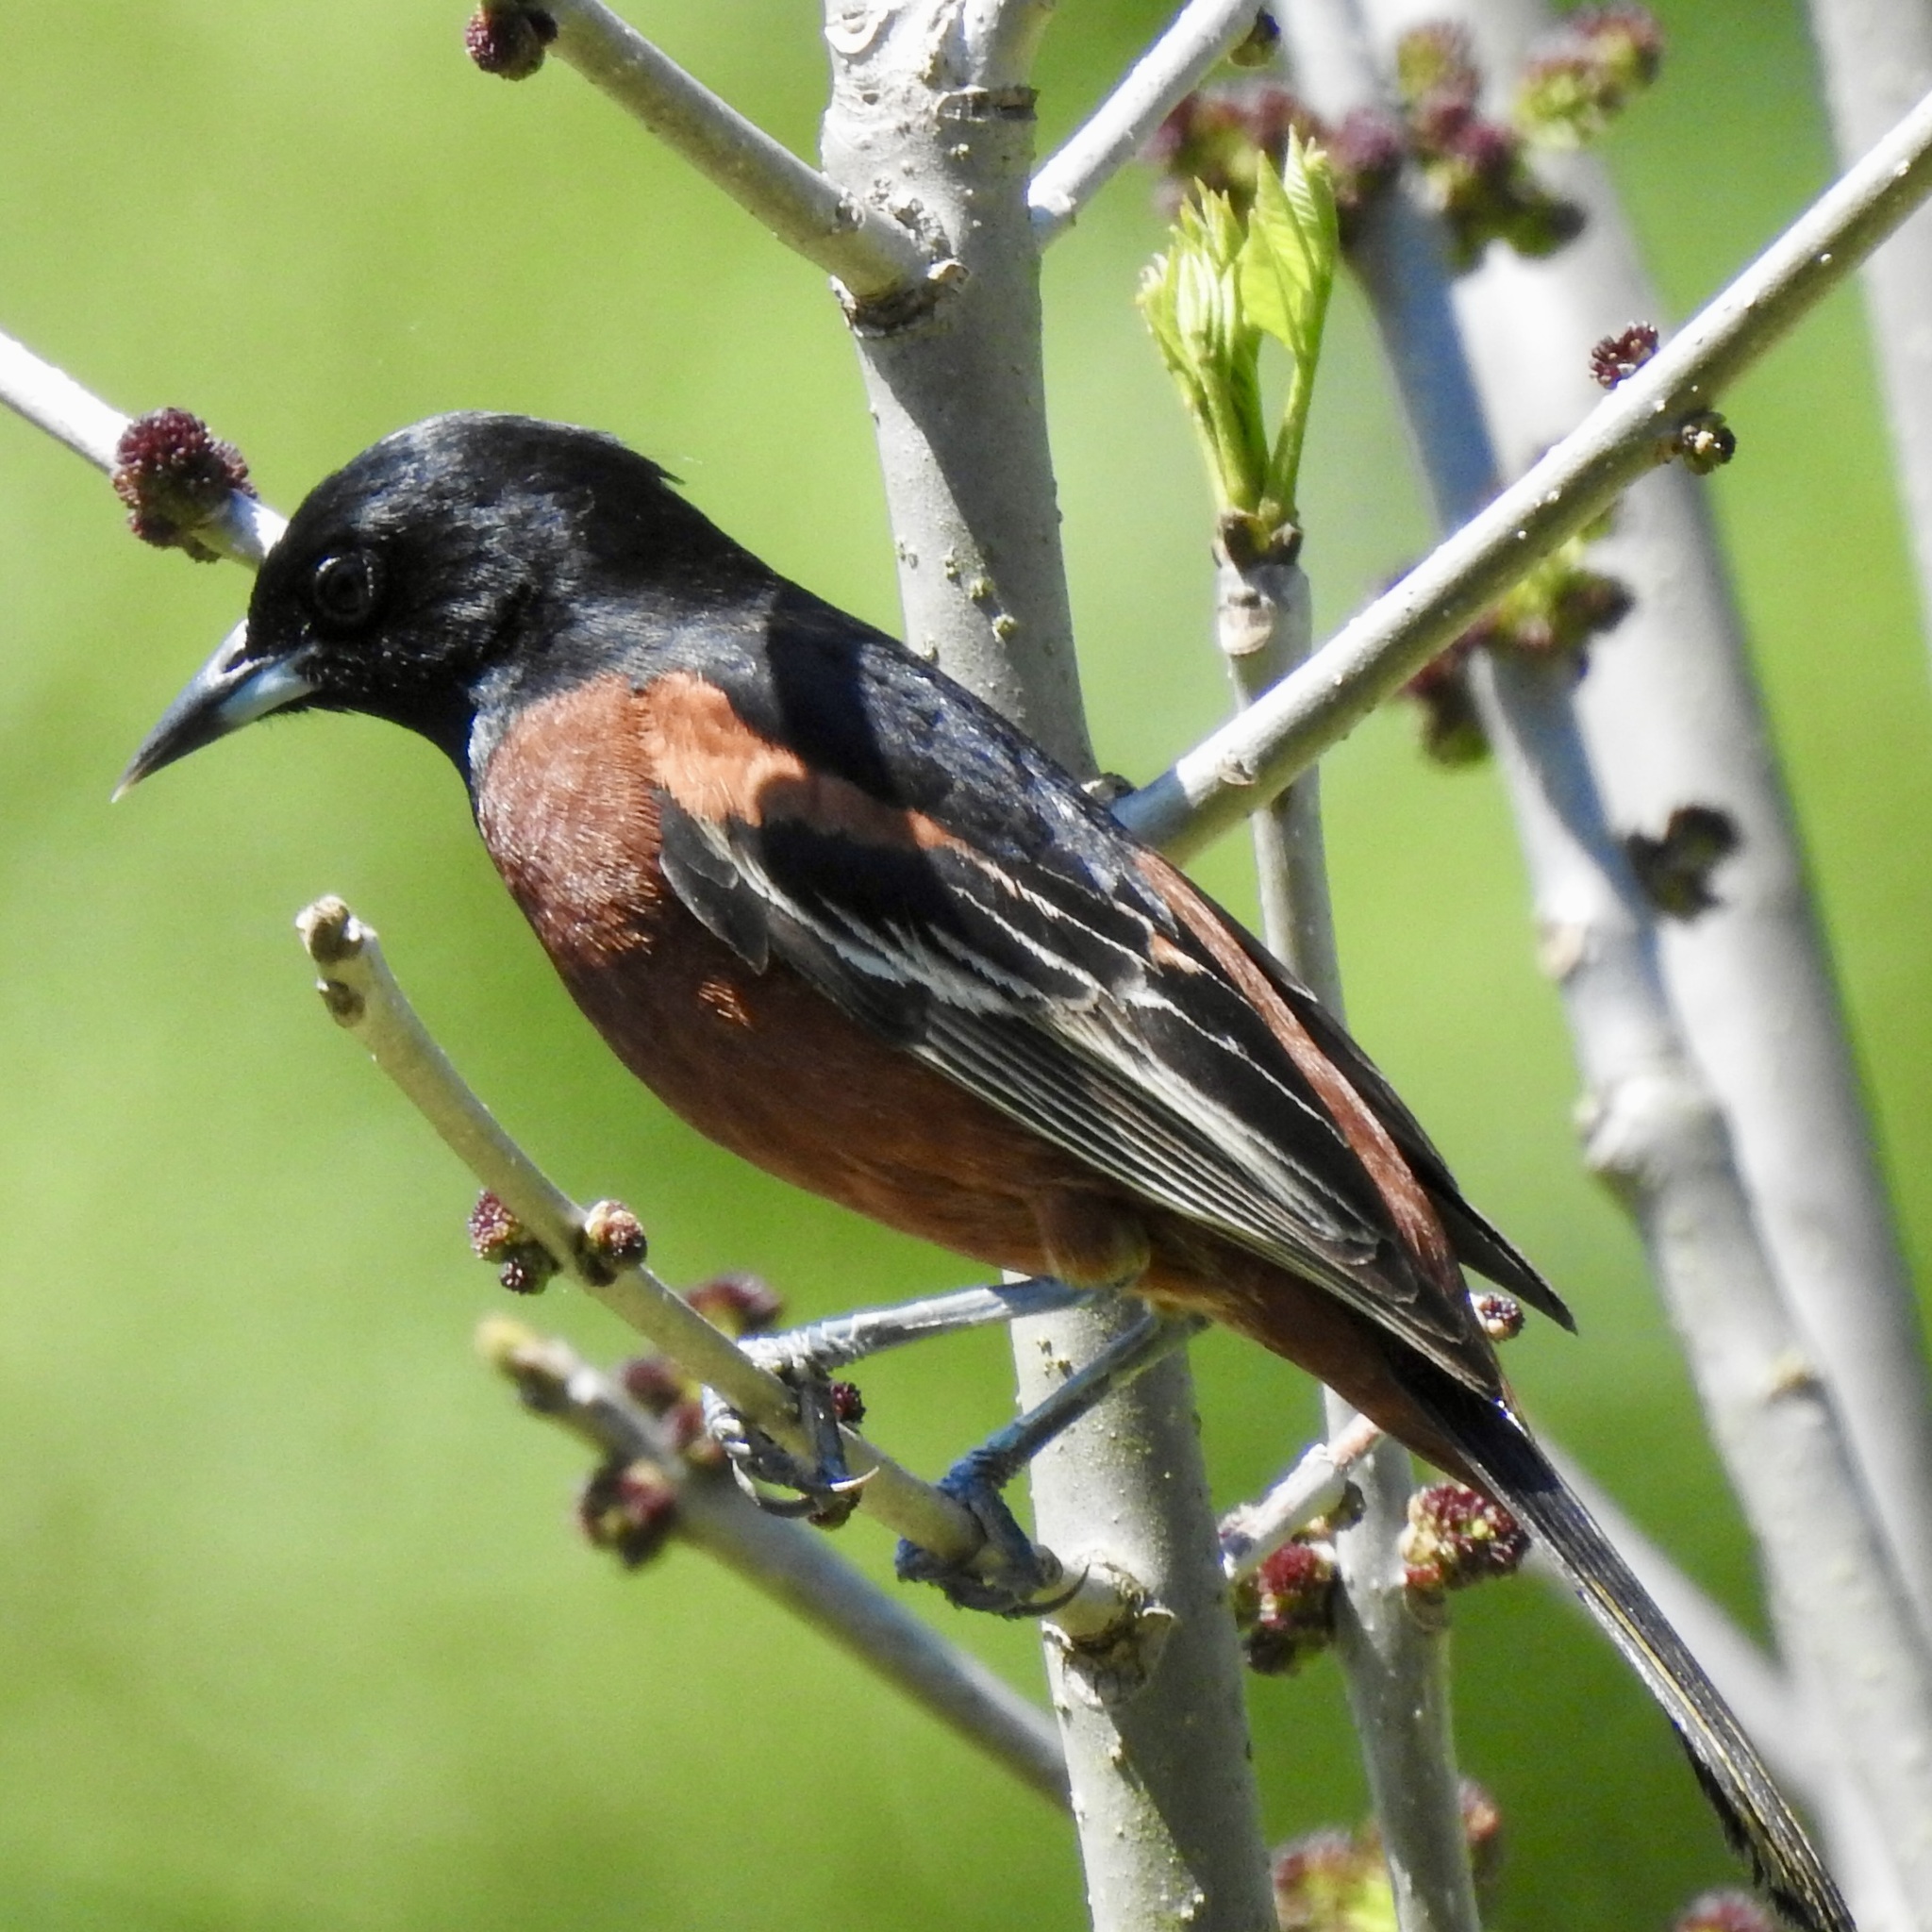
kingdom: Animalia
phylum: Chordata
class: Aves
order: Passeriformes
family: Icteridae
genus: Icterus
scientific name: Icterus spurius
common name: Orchard oriole
